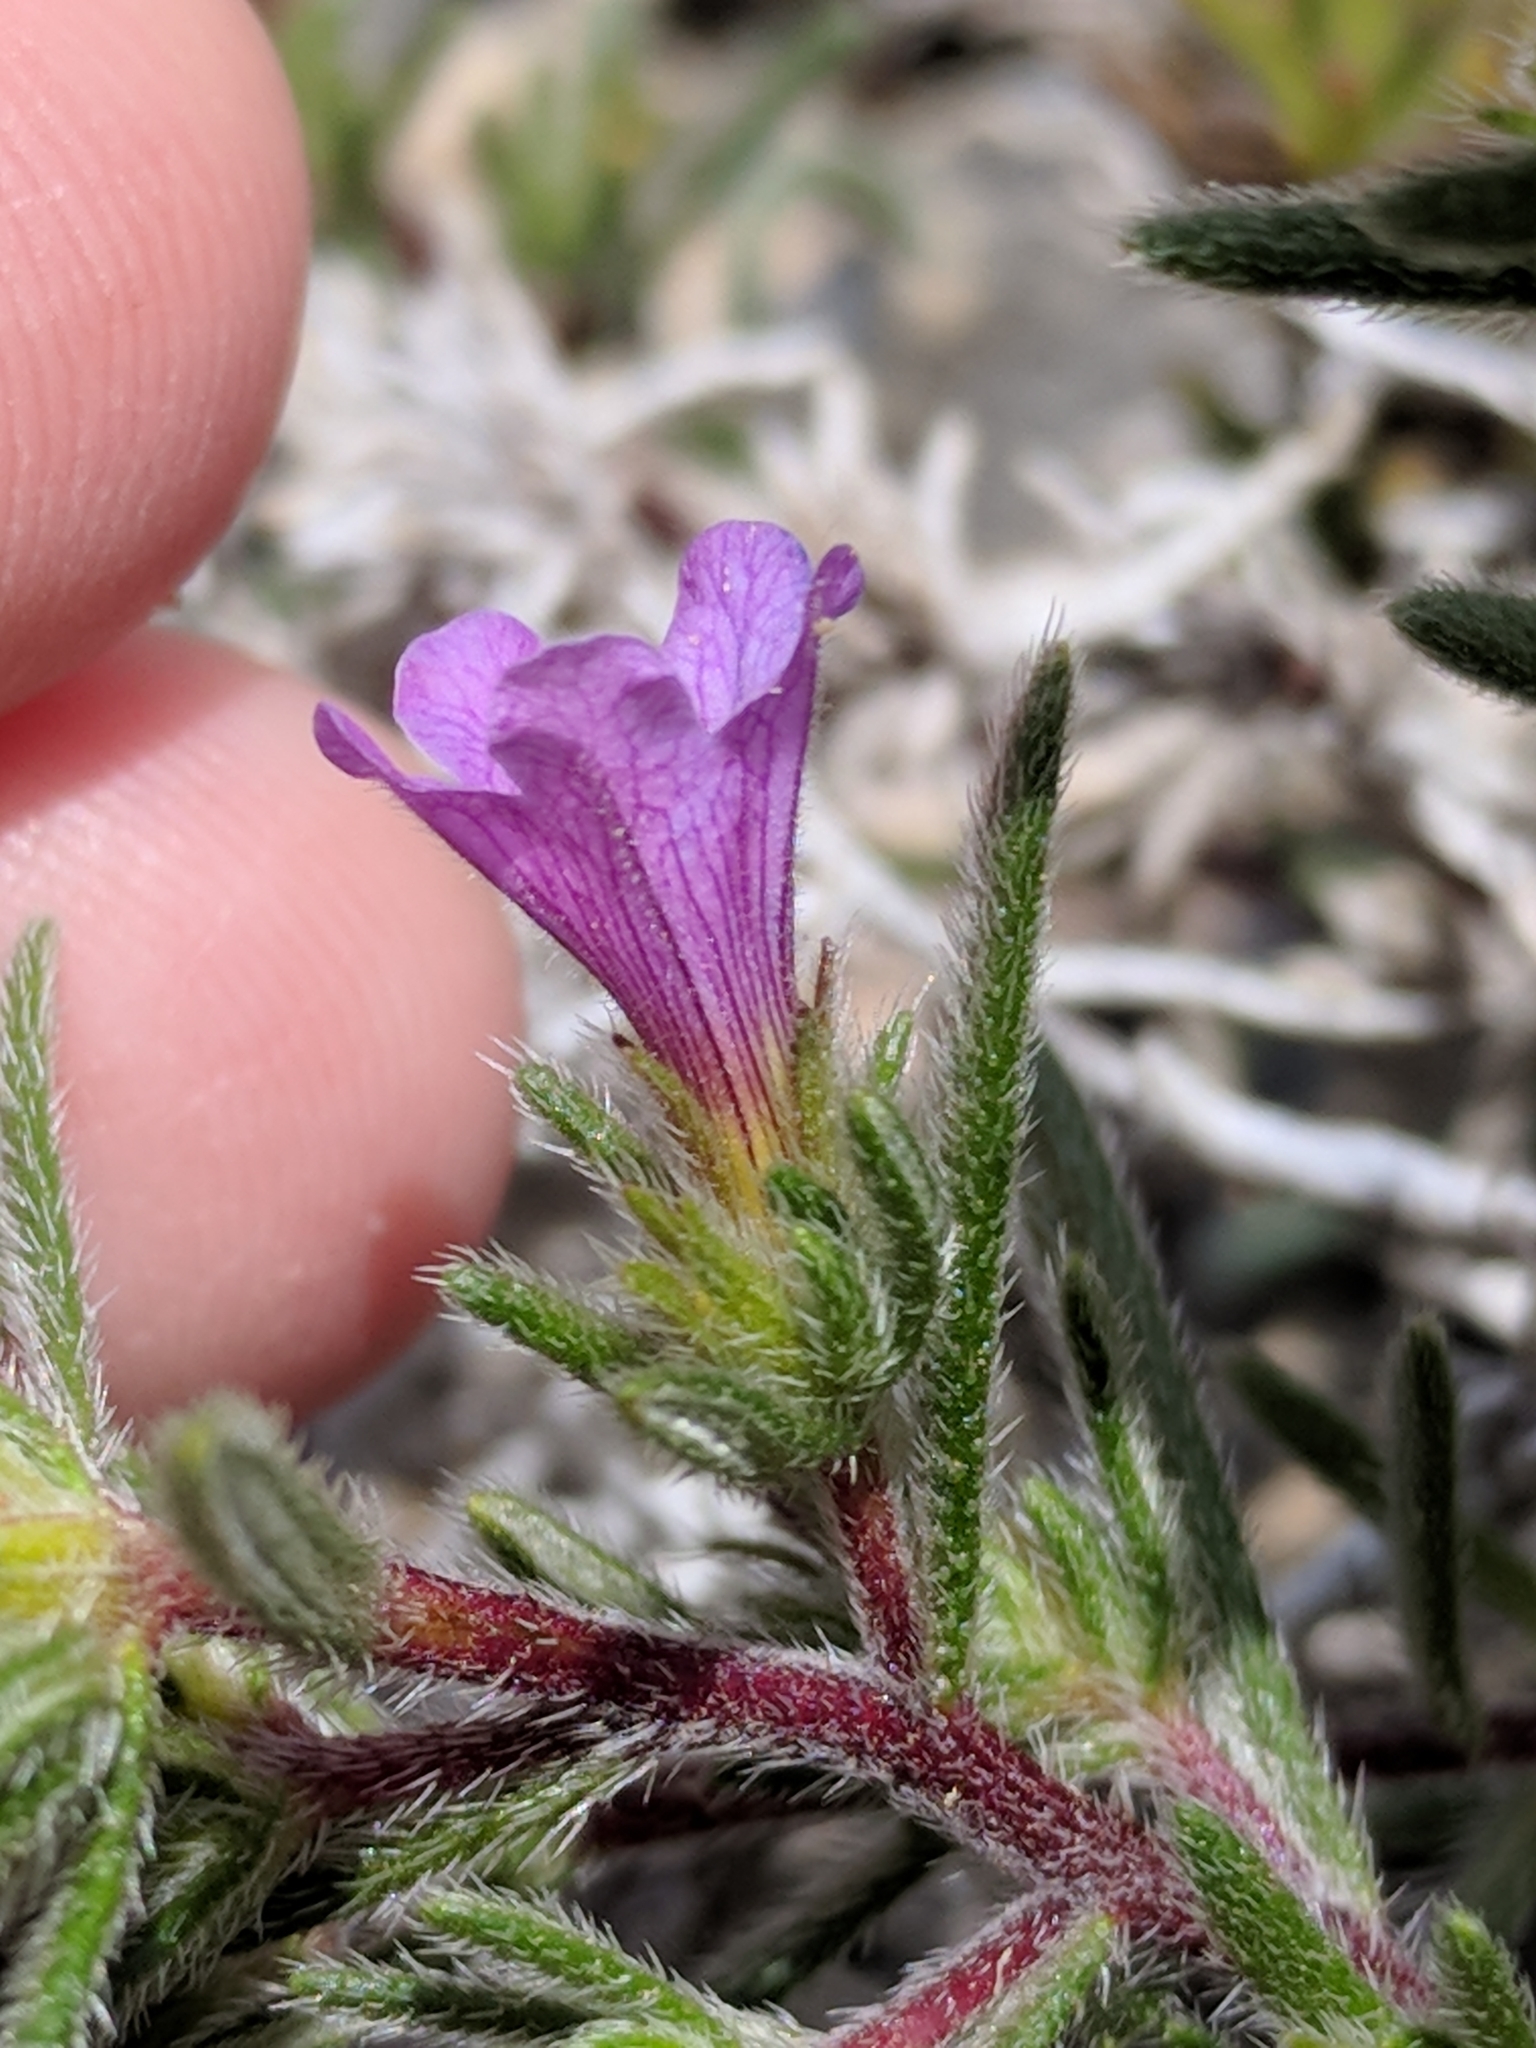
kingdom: Plantae
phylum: Tracheophyta
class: Magnoliopsida
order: Boraginales
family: Namaceae
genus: Nama
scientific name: Nama hispida
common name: Bristly nama
